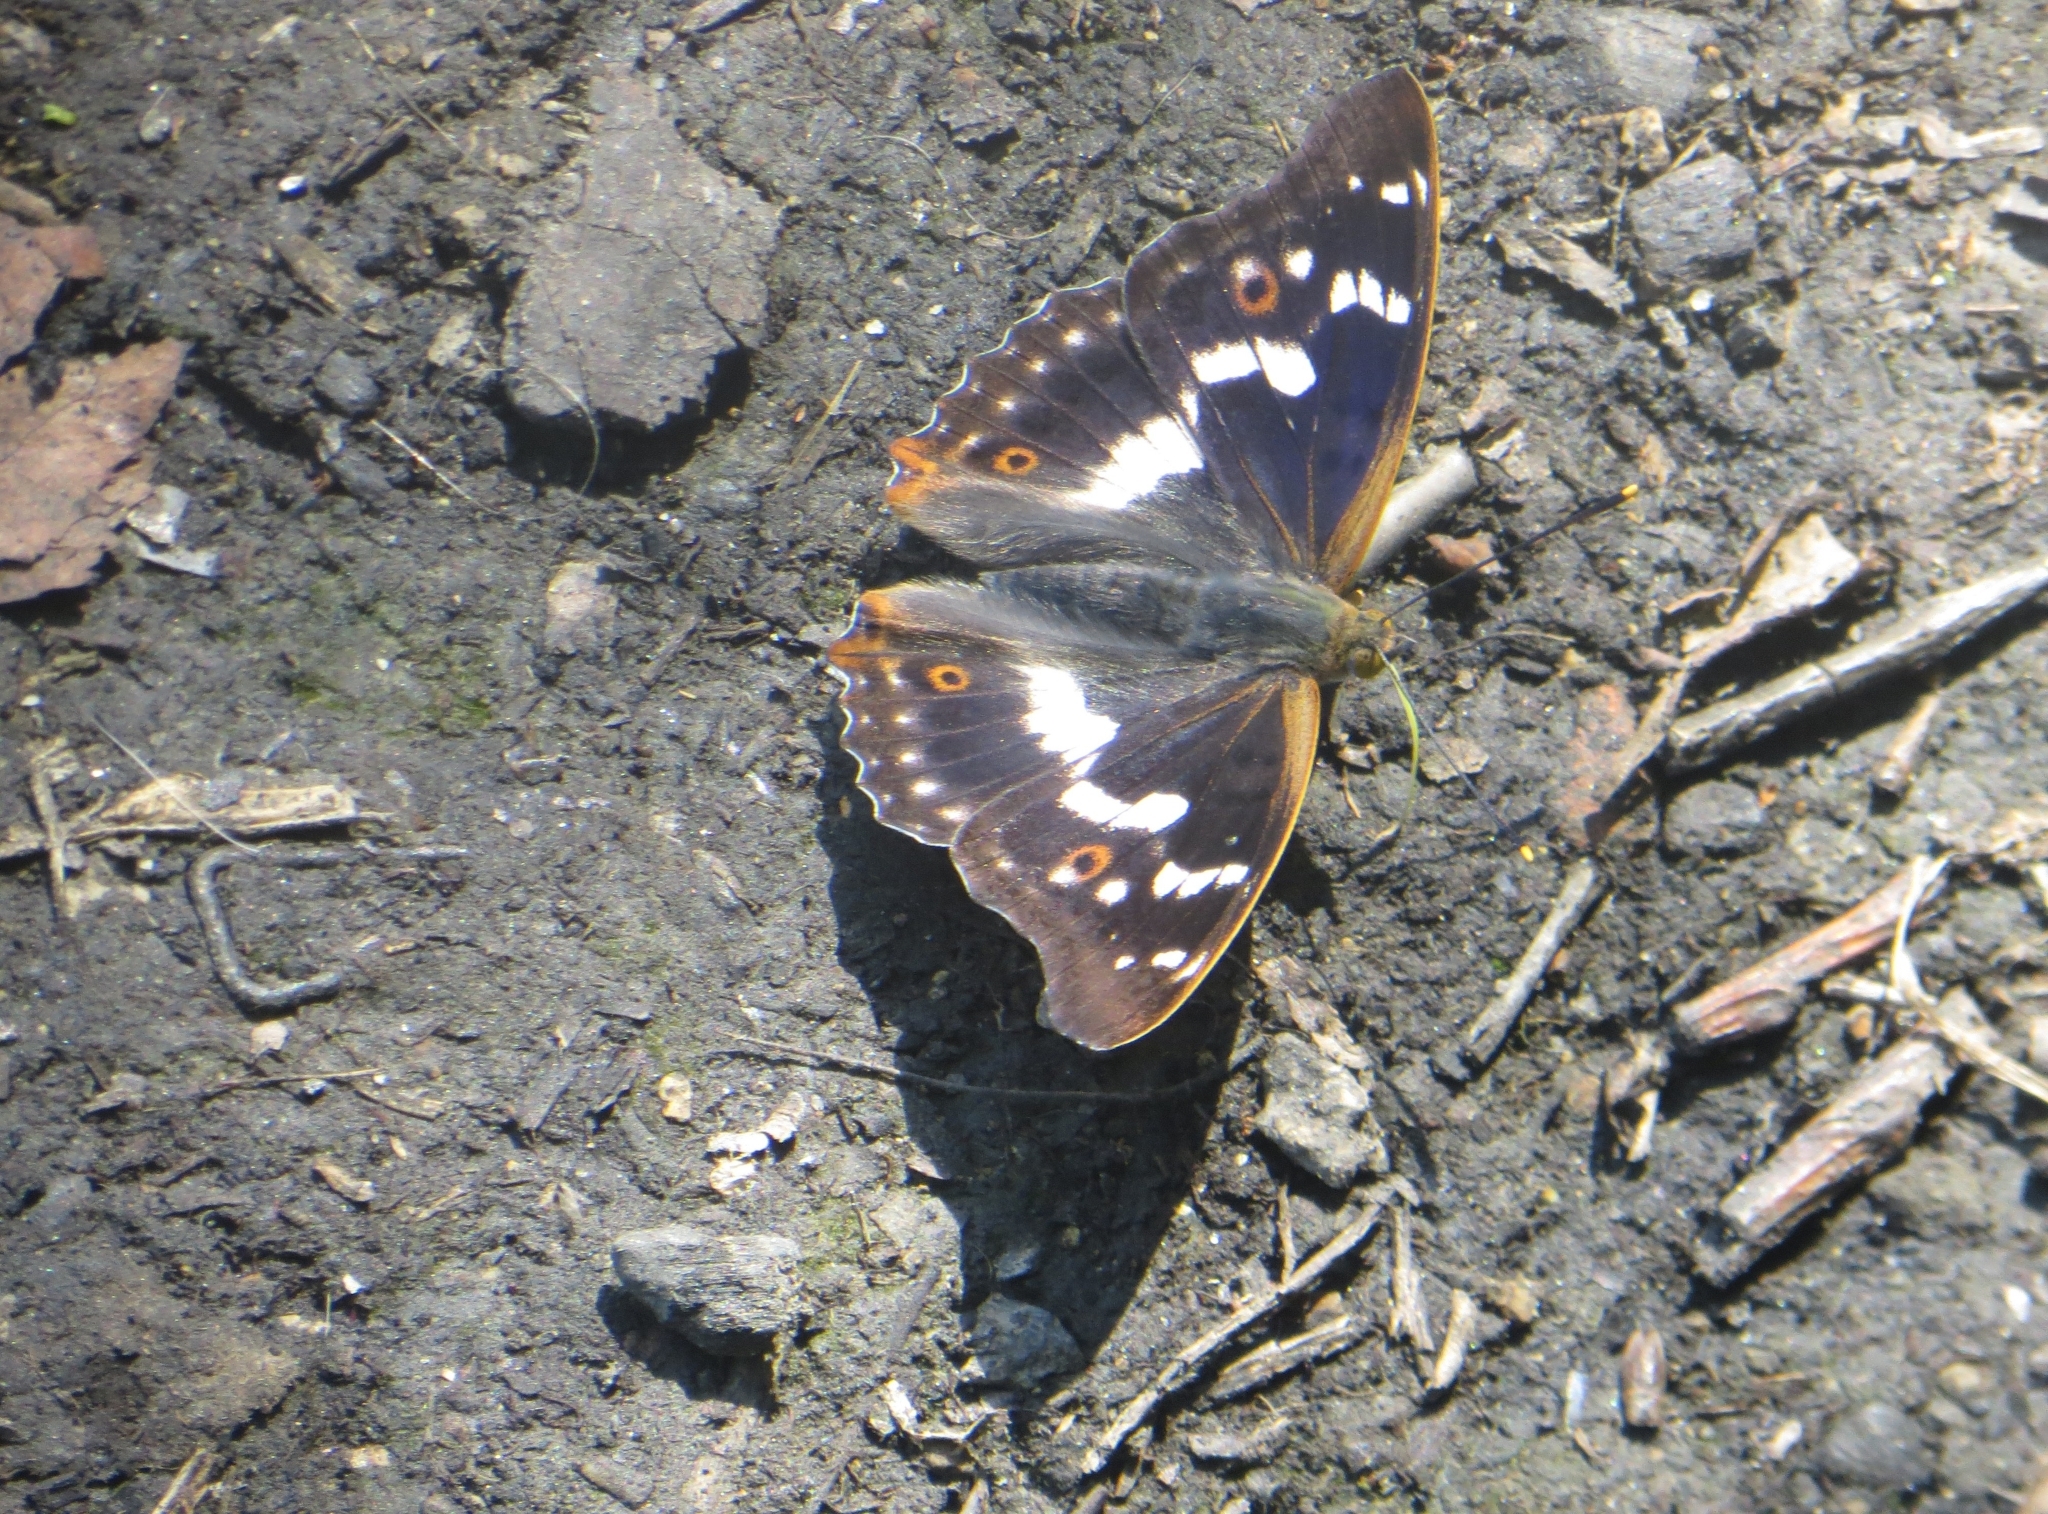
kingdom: Animalia
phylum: Arthropoda
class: Insecta
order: Lepidoptera
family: Nymphalidae
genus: Apatura
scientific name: Apatura ilia
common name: Lesser purple emperor
